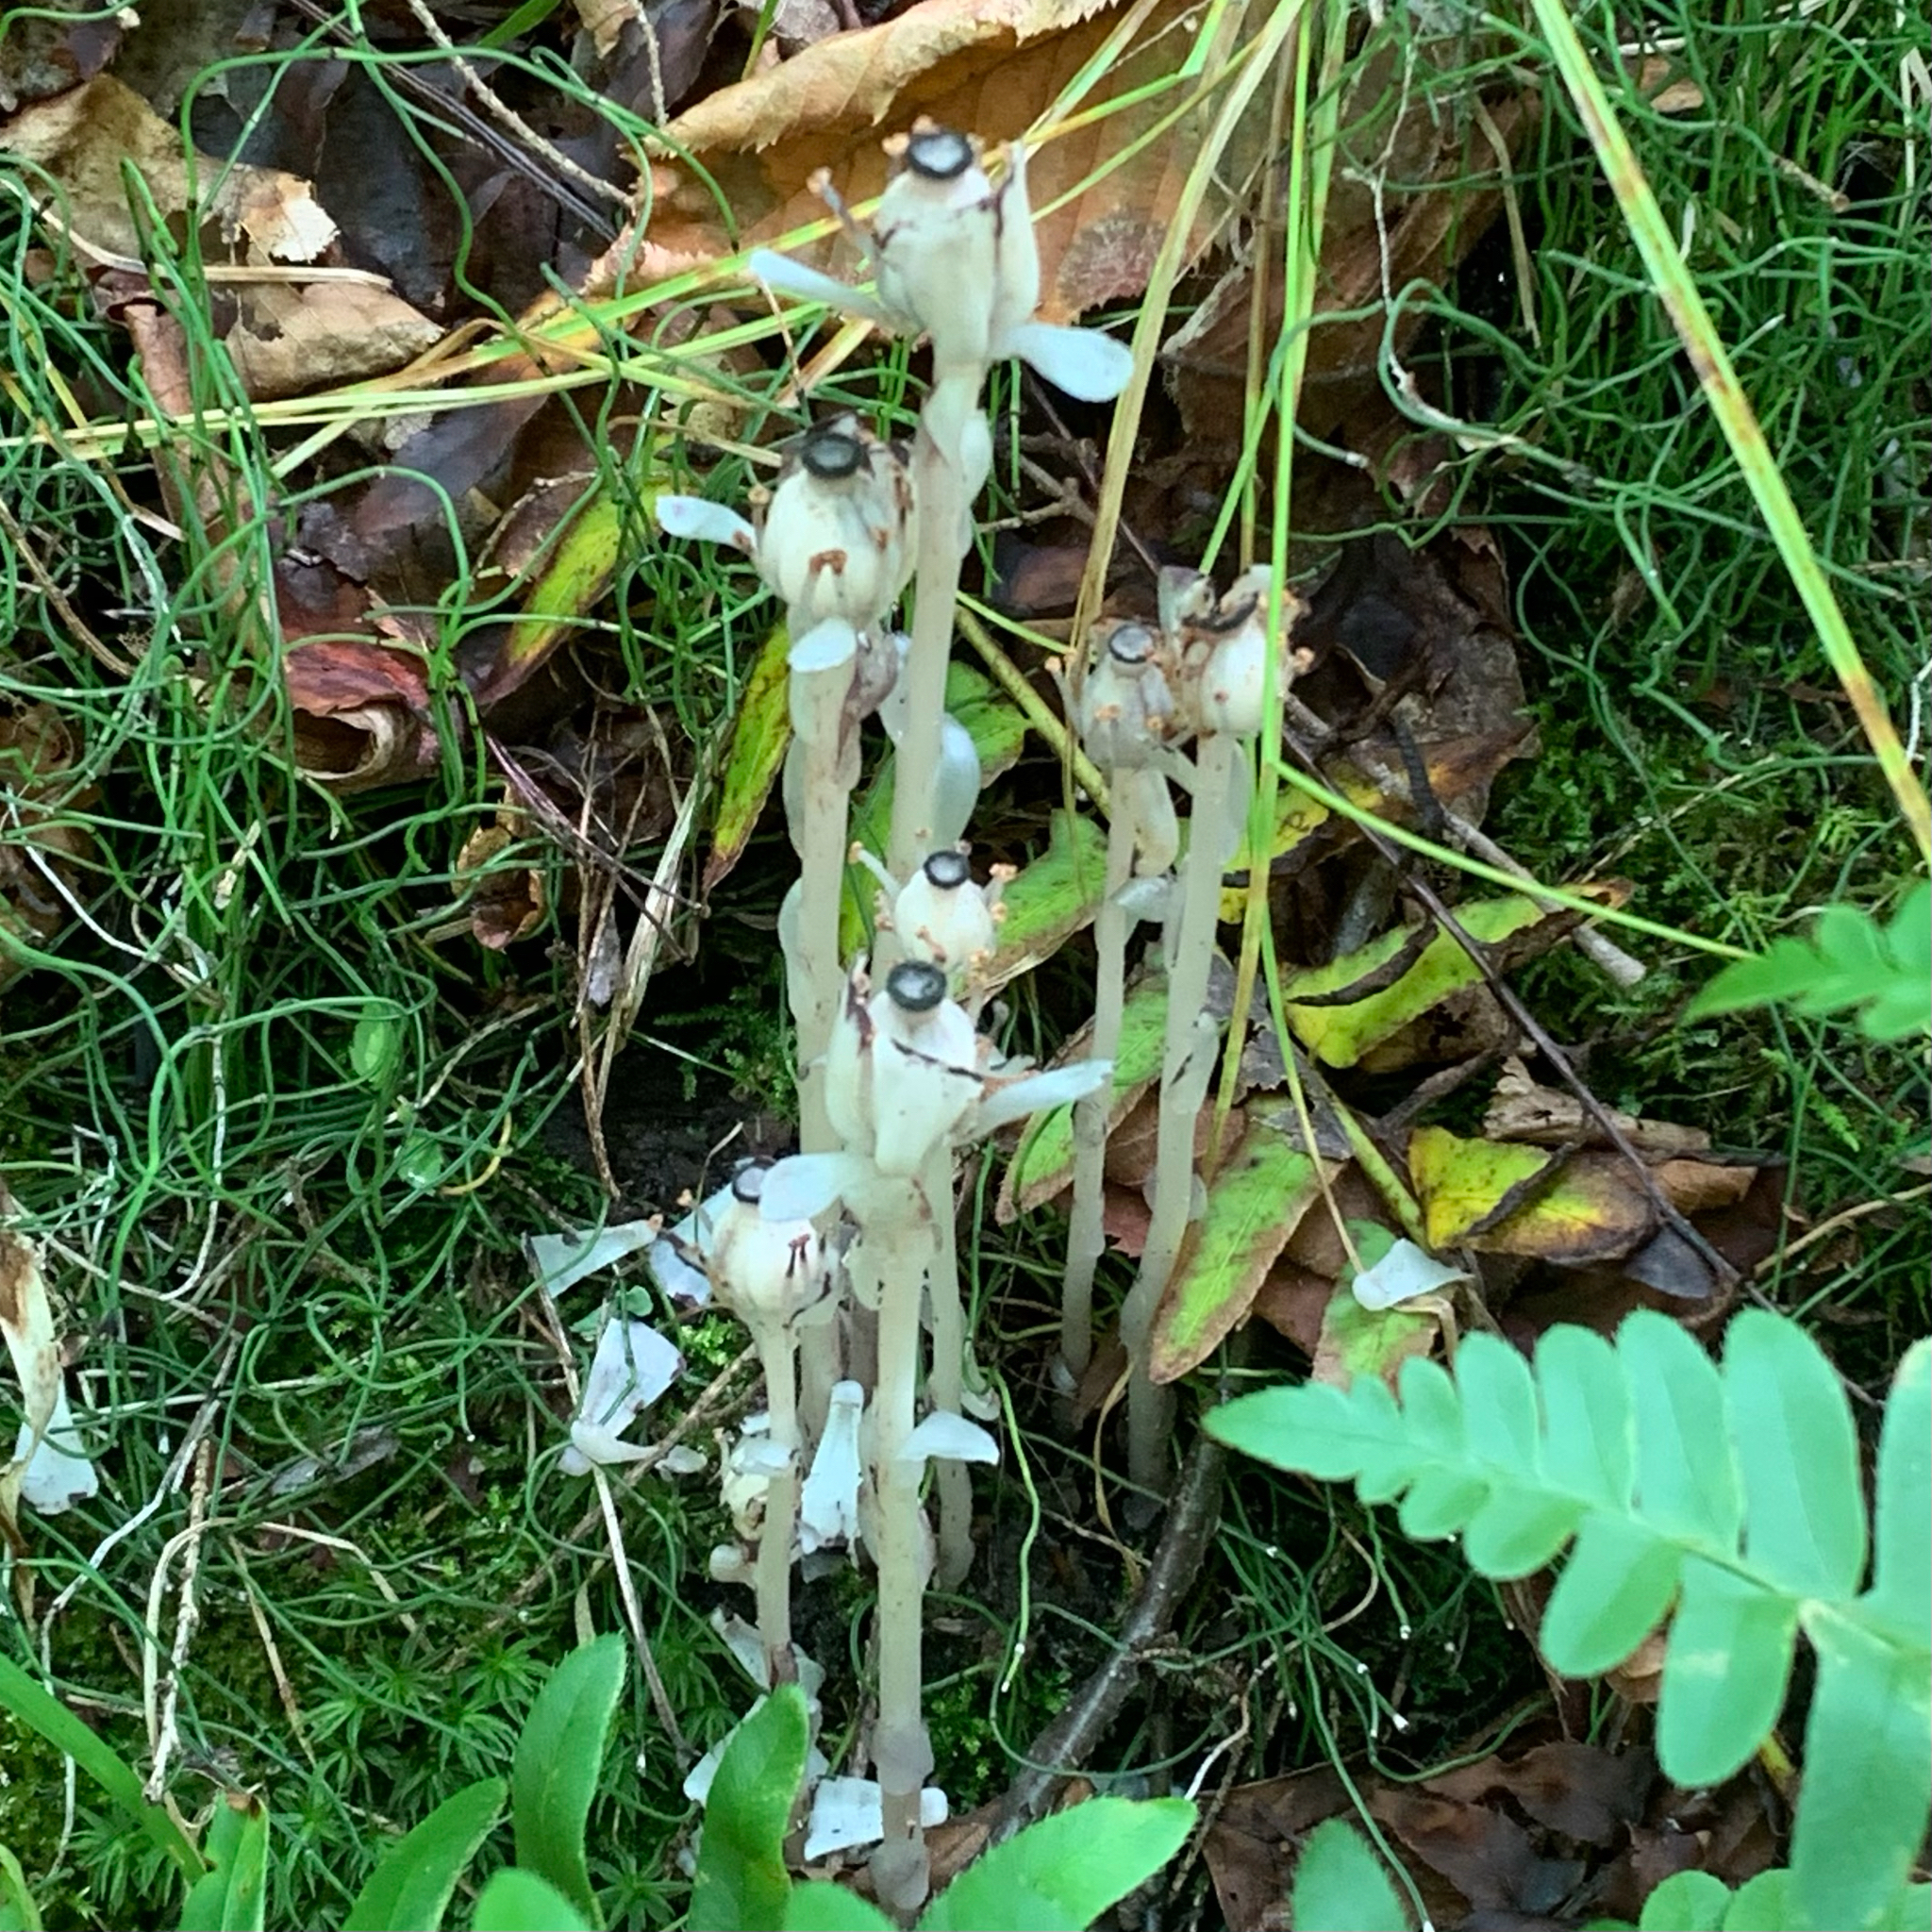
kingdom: Plantae
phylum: Tracheophyta
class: Magnoliopsida
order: Ericales
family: Ericaceae
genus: Monotropa
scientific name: Monotropa uniflora
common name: Convulsion root
